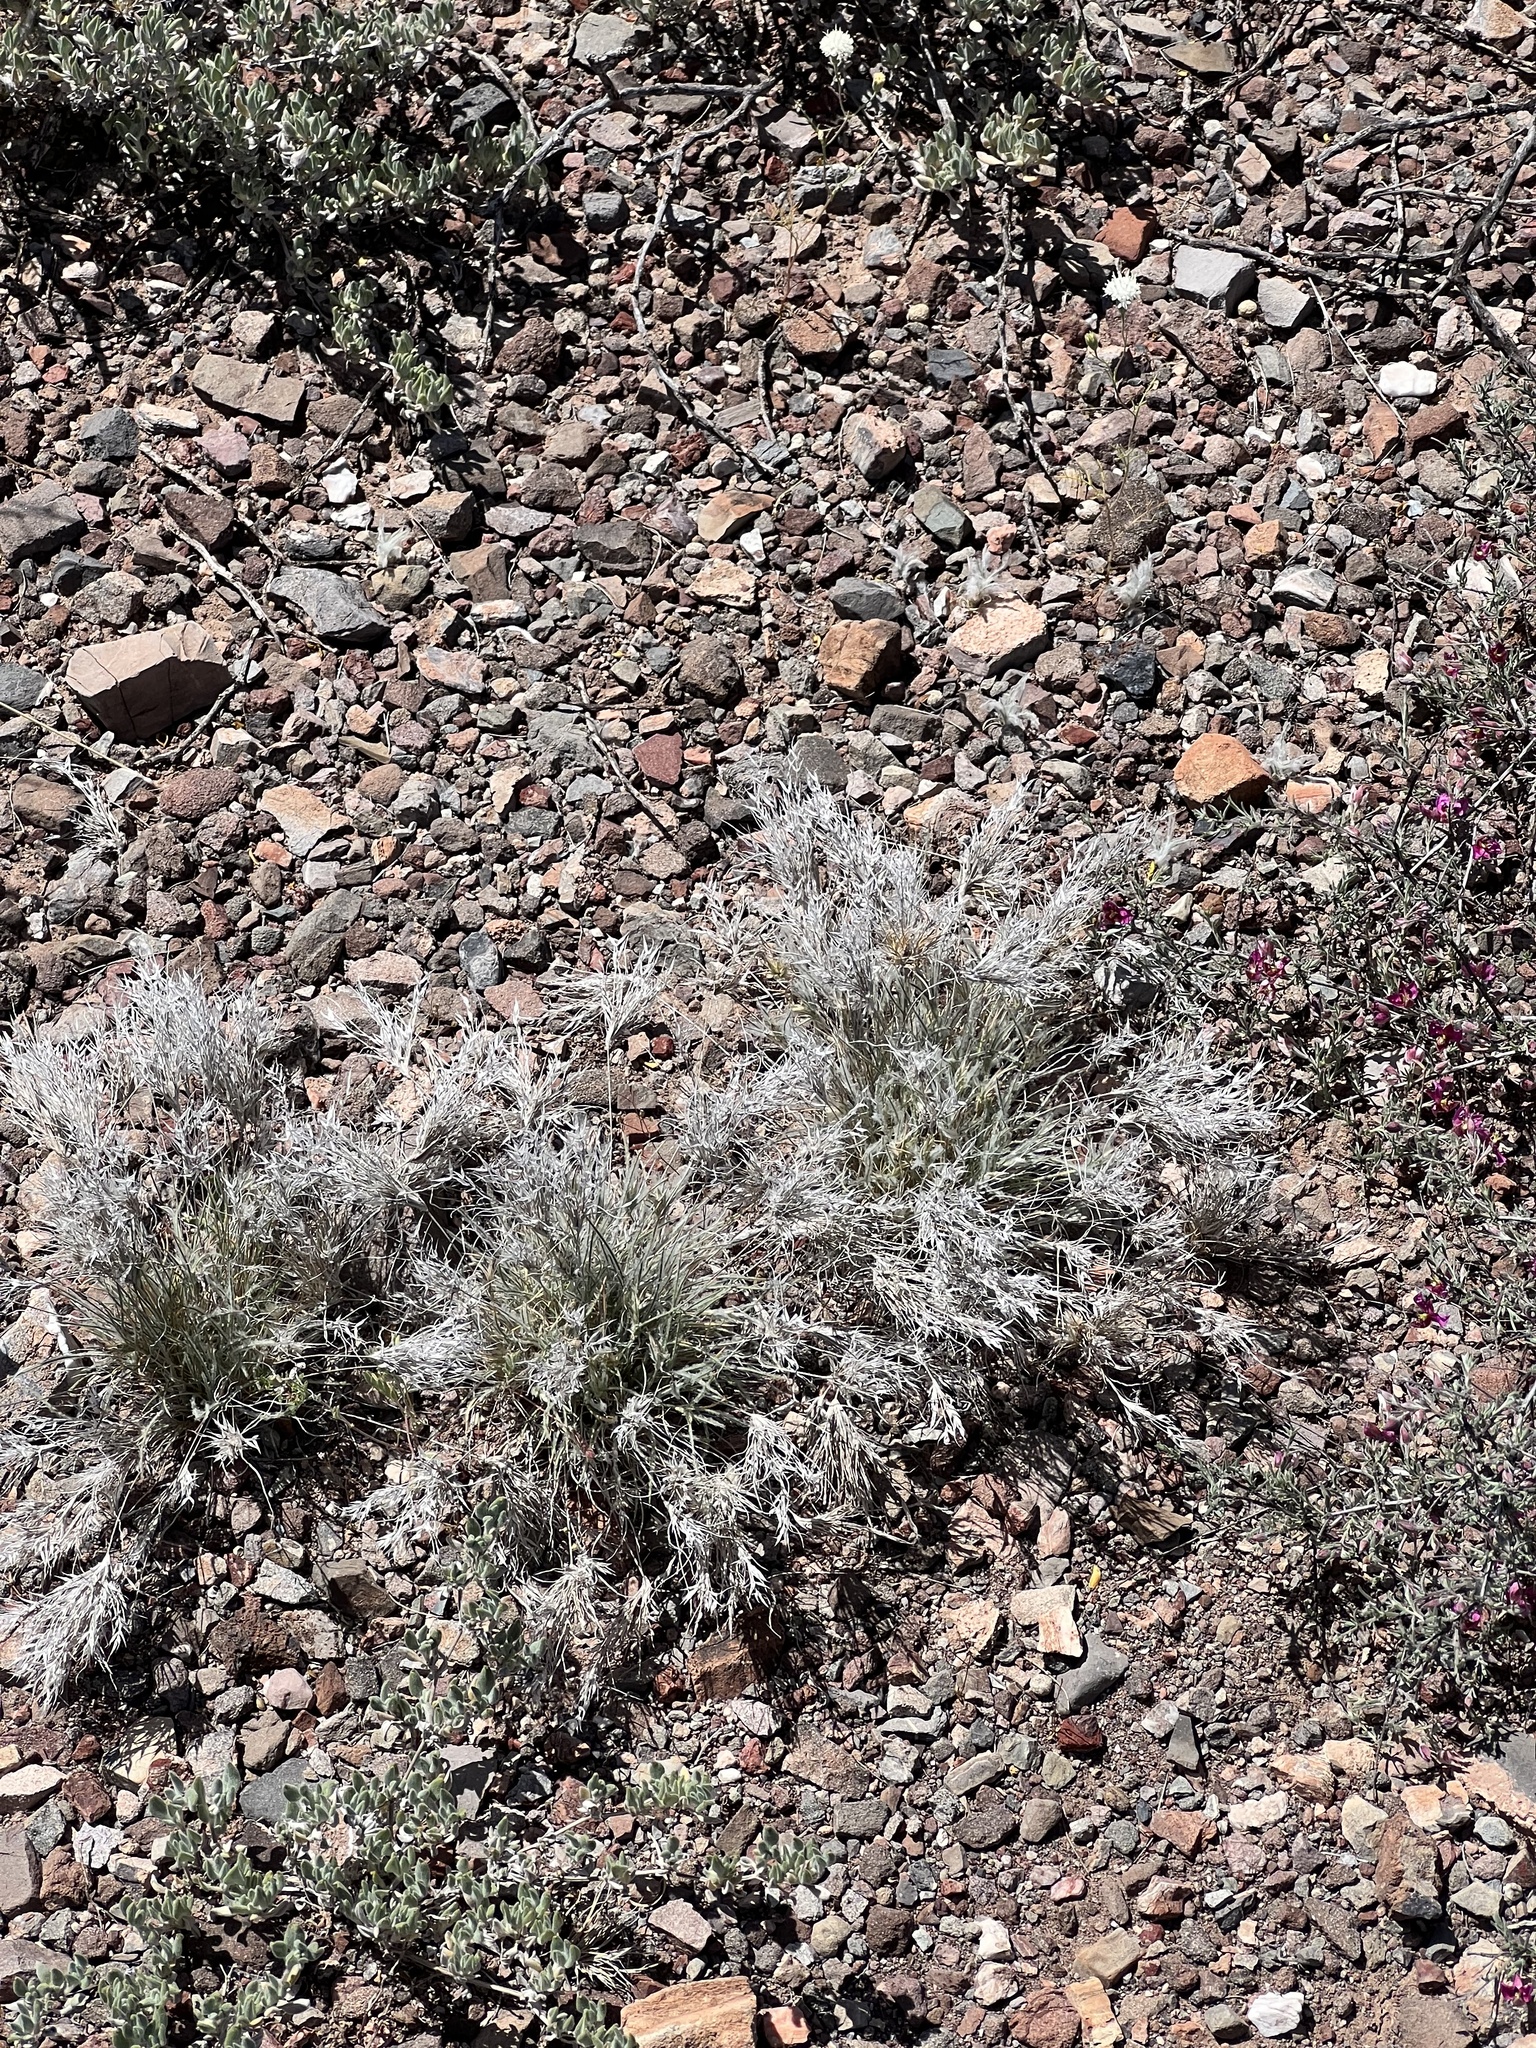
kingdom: Plantae
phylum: Tracheophyta
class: Liliopsida
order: Poales
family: Poaceae
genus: Dasyochloa
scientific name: Dasyochloa pulchella
